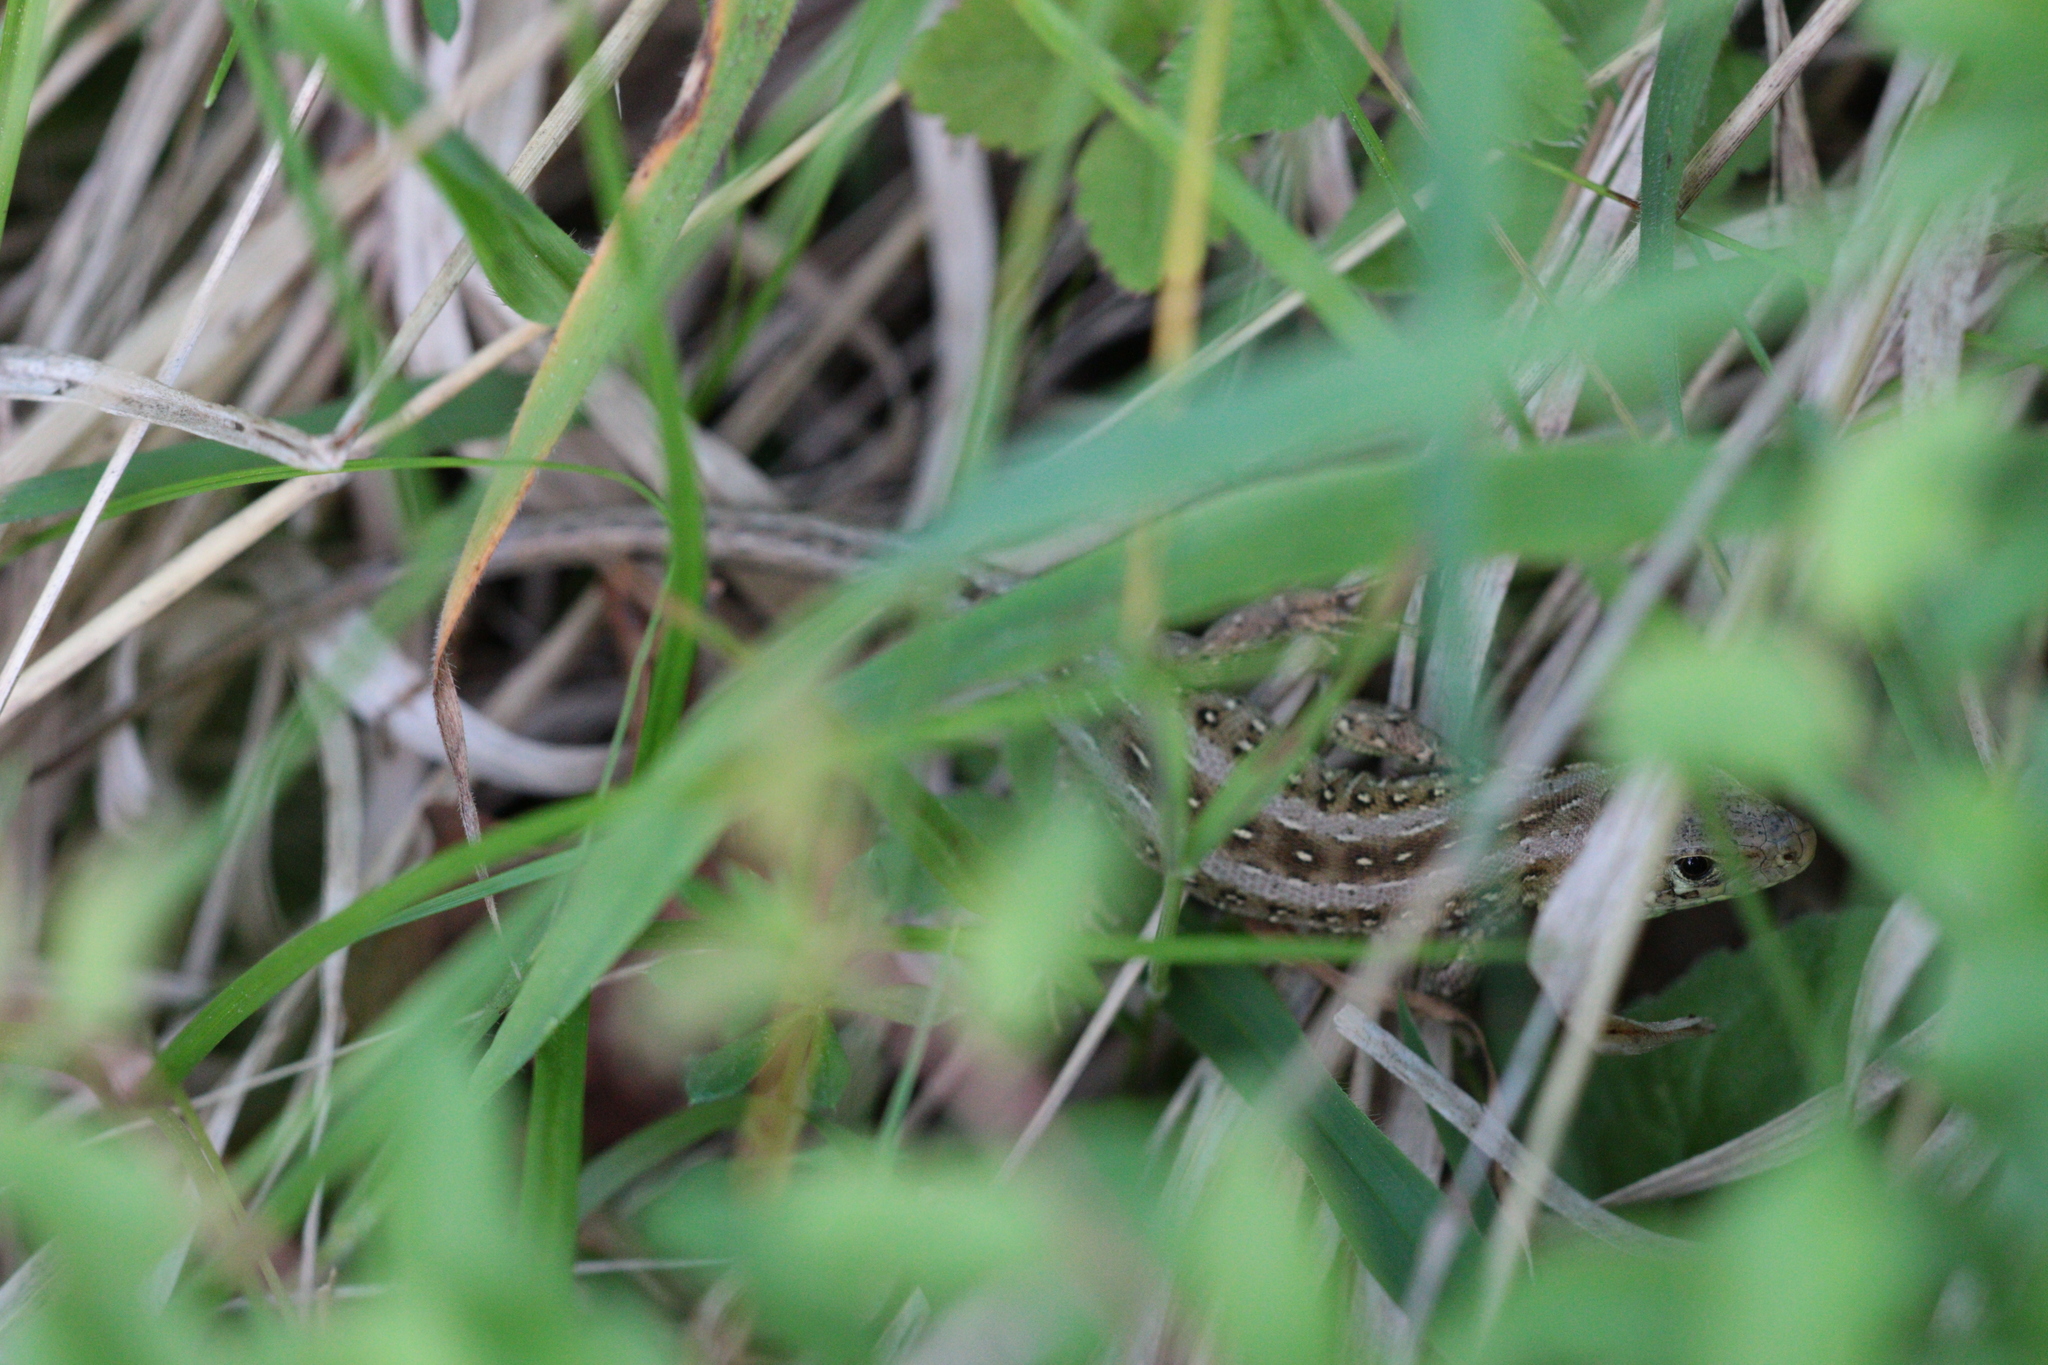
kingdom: Animalia
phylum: Chordata
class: Squamata
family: Lacertidae
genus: Lacerta
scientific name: Lacerta agilis
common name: Sand lizard
